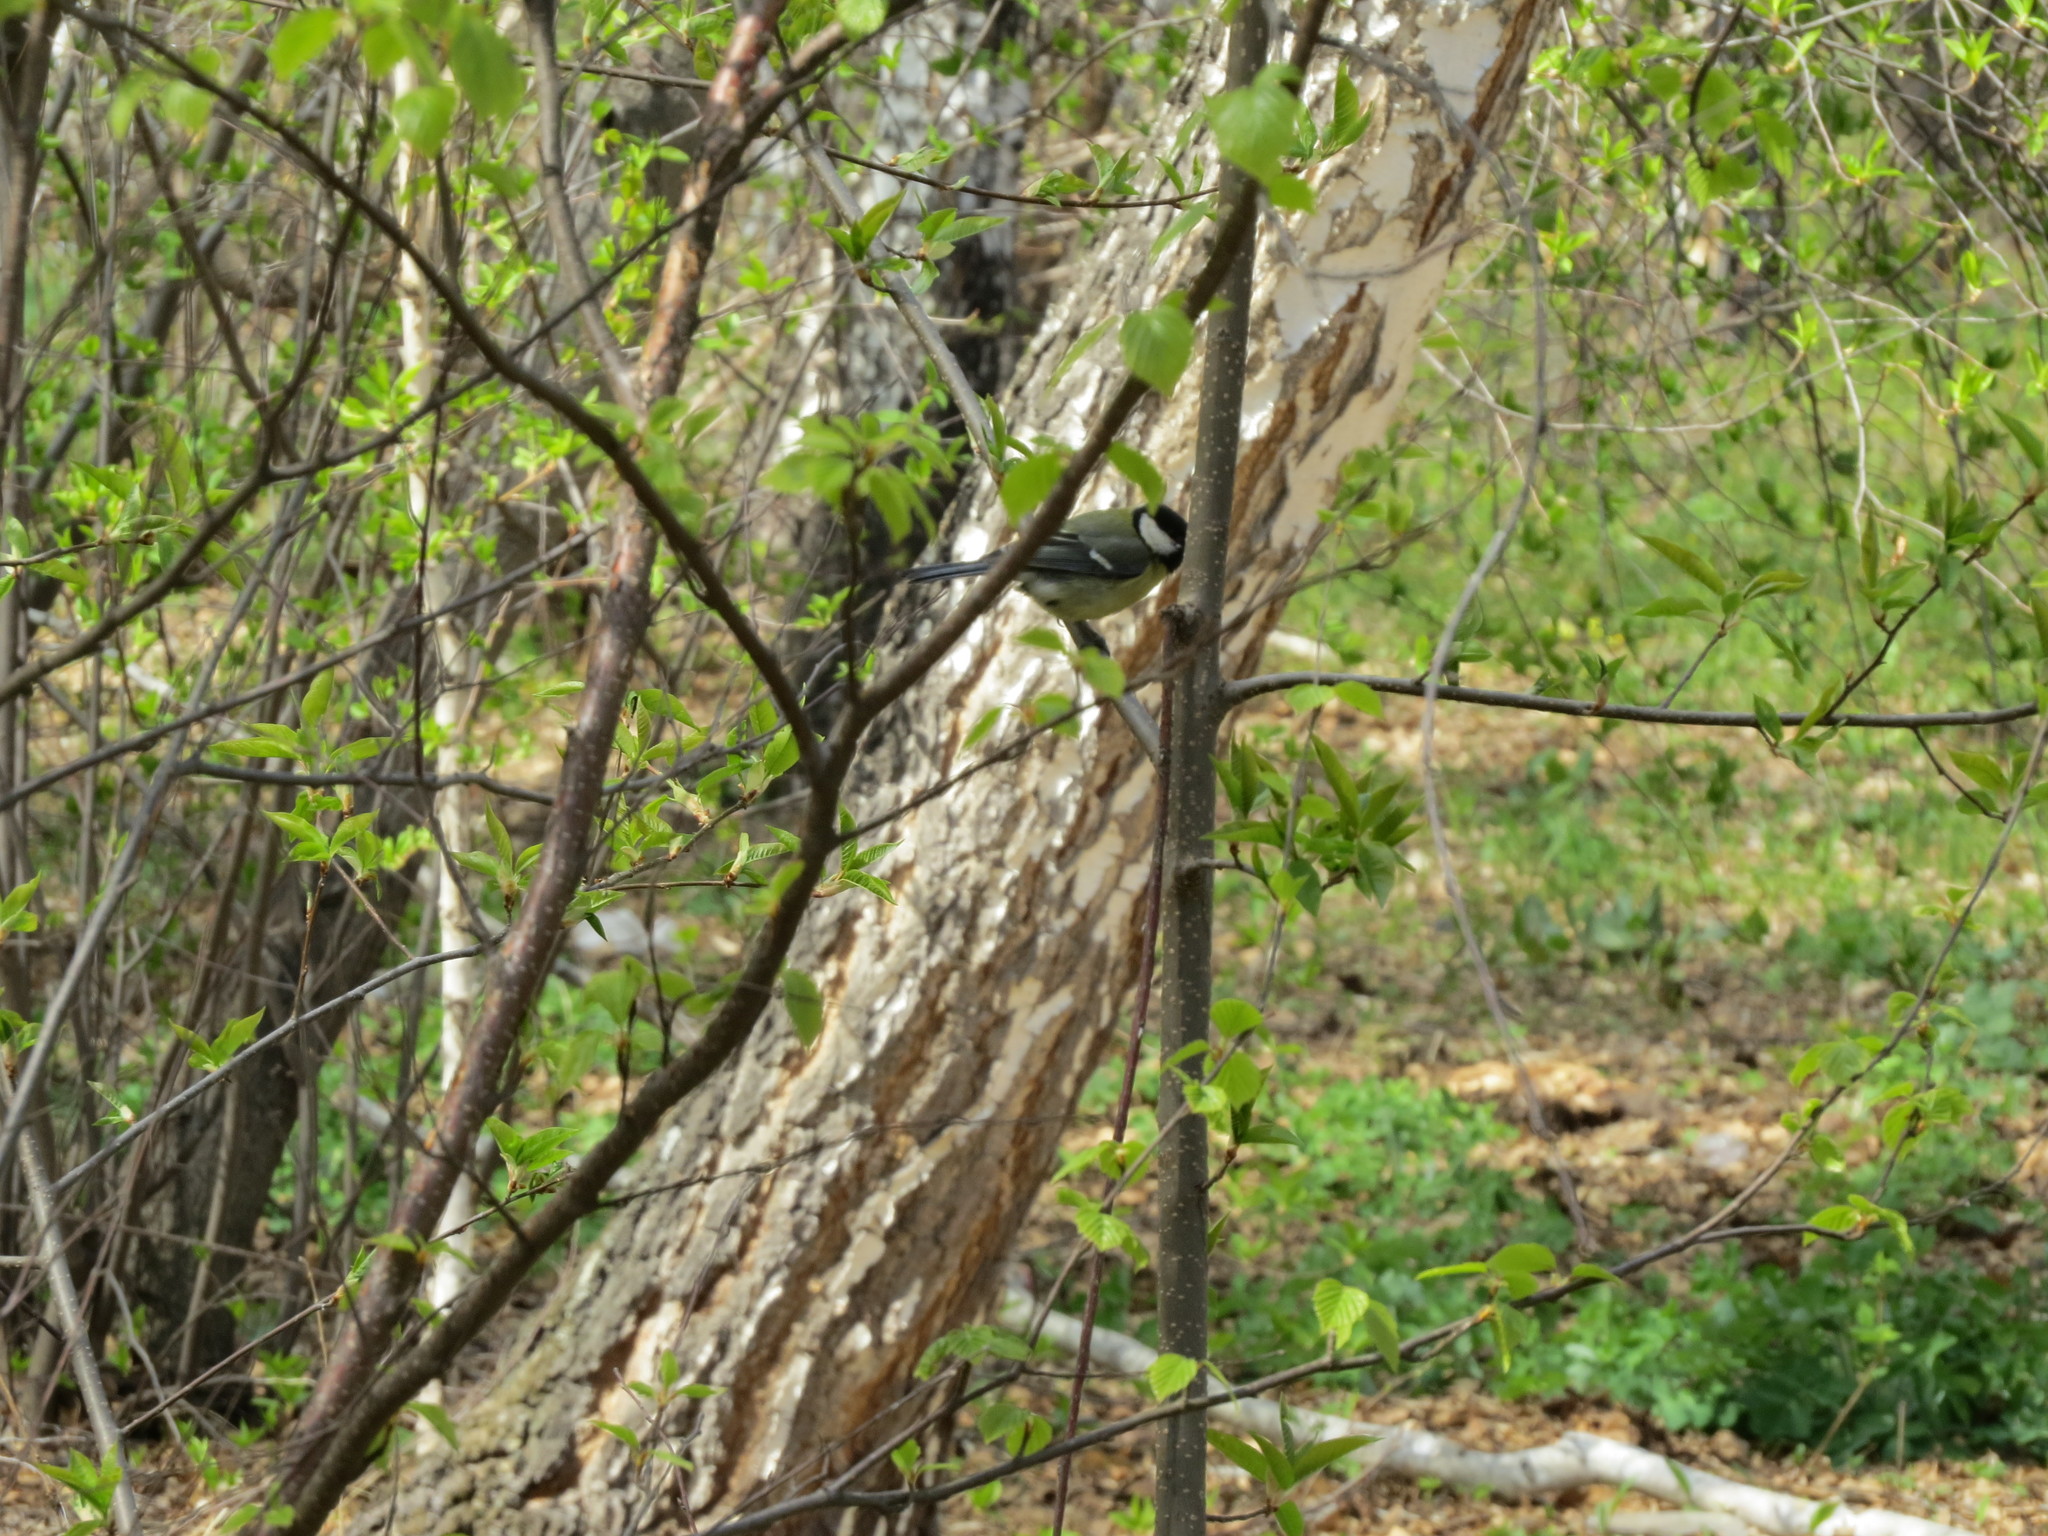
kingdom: Animalia
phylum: Chordata
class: Aves
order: Passeriformes
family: Paridae
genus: Parus
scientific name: Parus major
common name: Great tit
